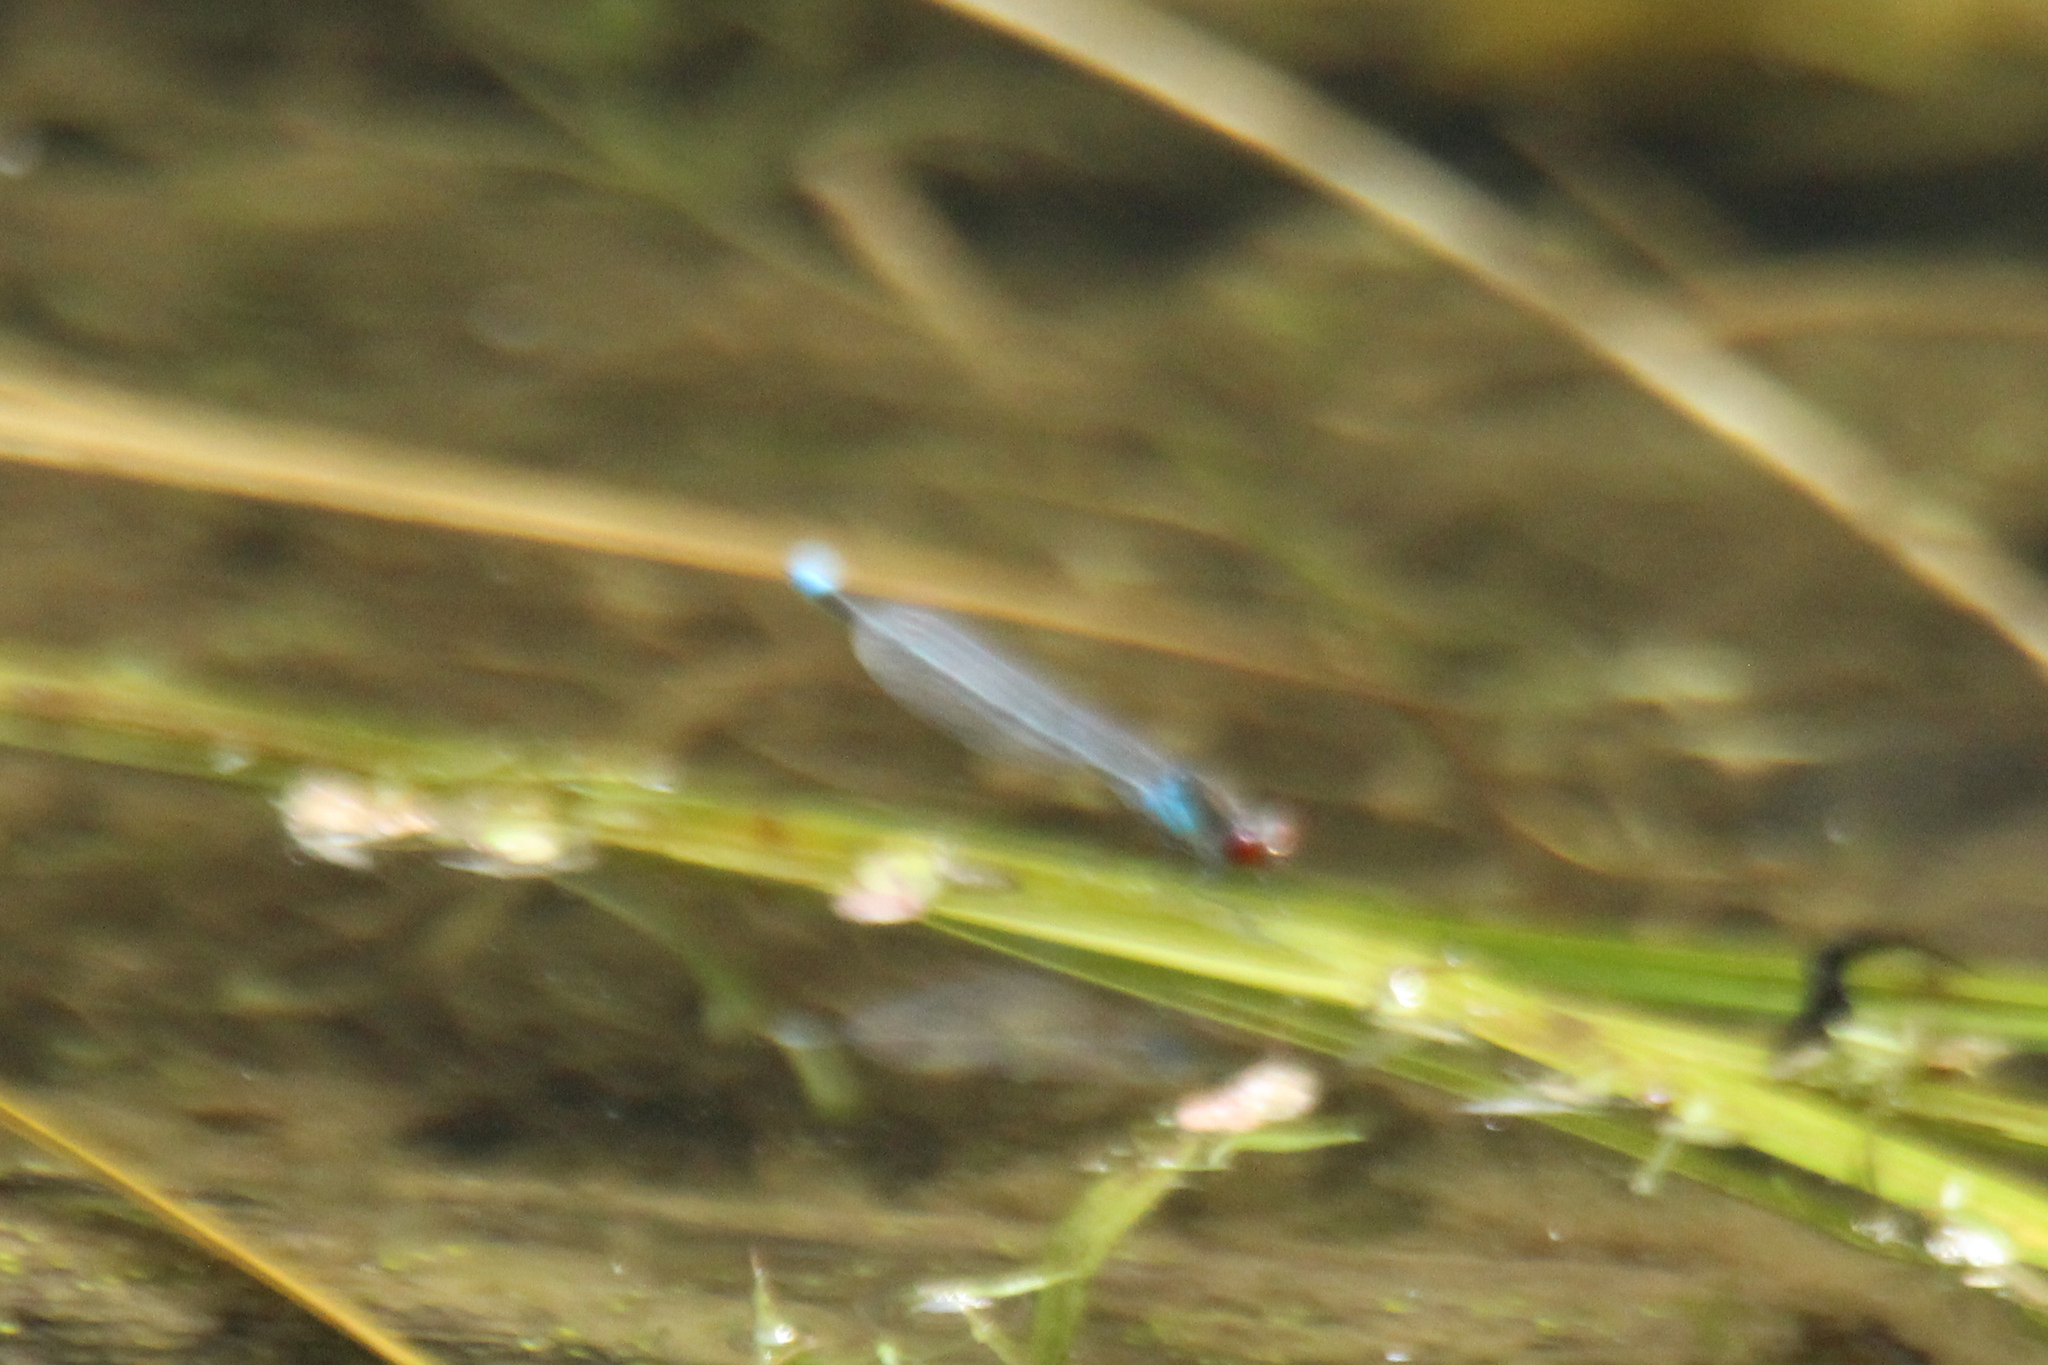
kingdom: Animalia
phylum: Arthropoda
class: Insecta
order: Odonata
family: Coenagrionidae
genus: Erythromma
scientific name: Erythromma najas
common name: Red-eyed damselfly
